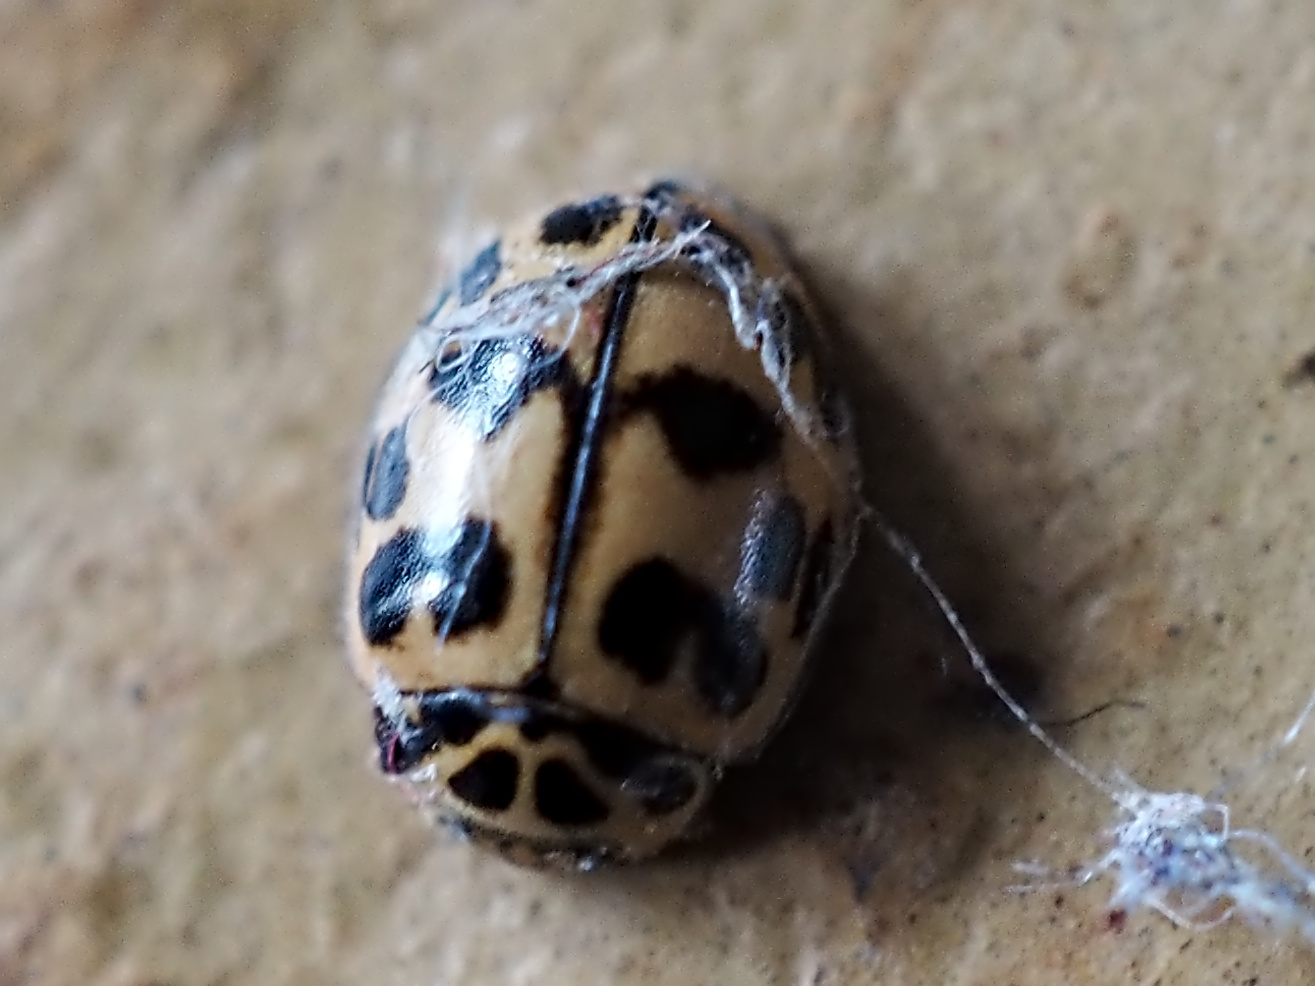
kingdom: Animalia
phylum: Arthropoda
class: Insecta
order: Coleoptera
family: Coccinellidae
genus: Oenopia
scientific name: Oenopia conglobata
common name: Ladybird beetle
